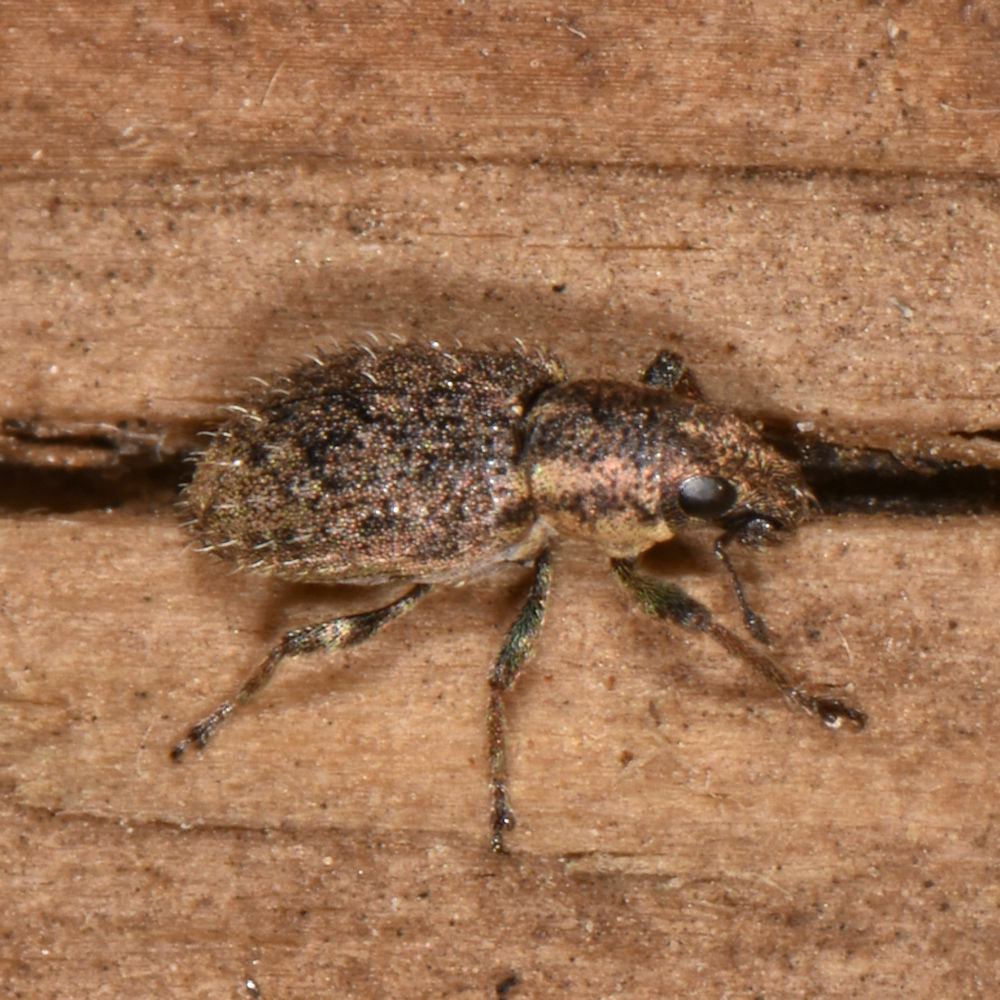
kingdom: Animalia
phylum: Arthropoda
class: Insecta
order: Coleoptera
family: Curculionidae
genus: Sitona
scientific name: Sitona hispidulus
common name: Clover weevil
